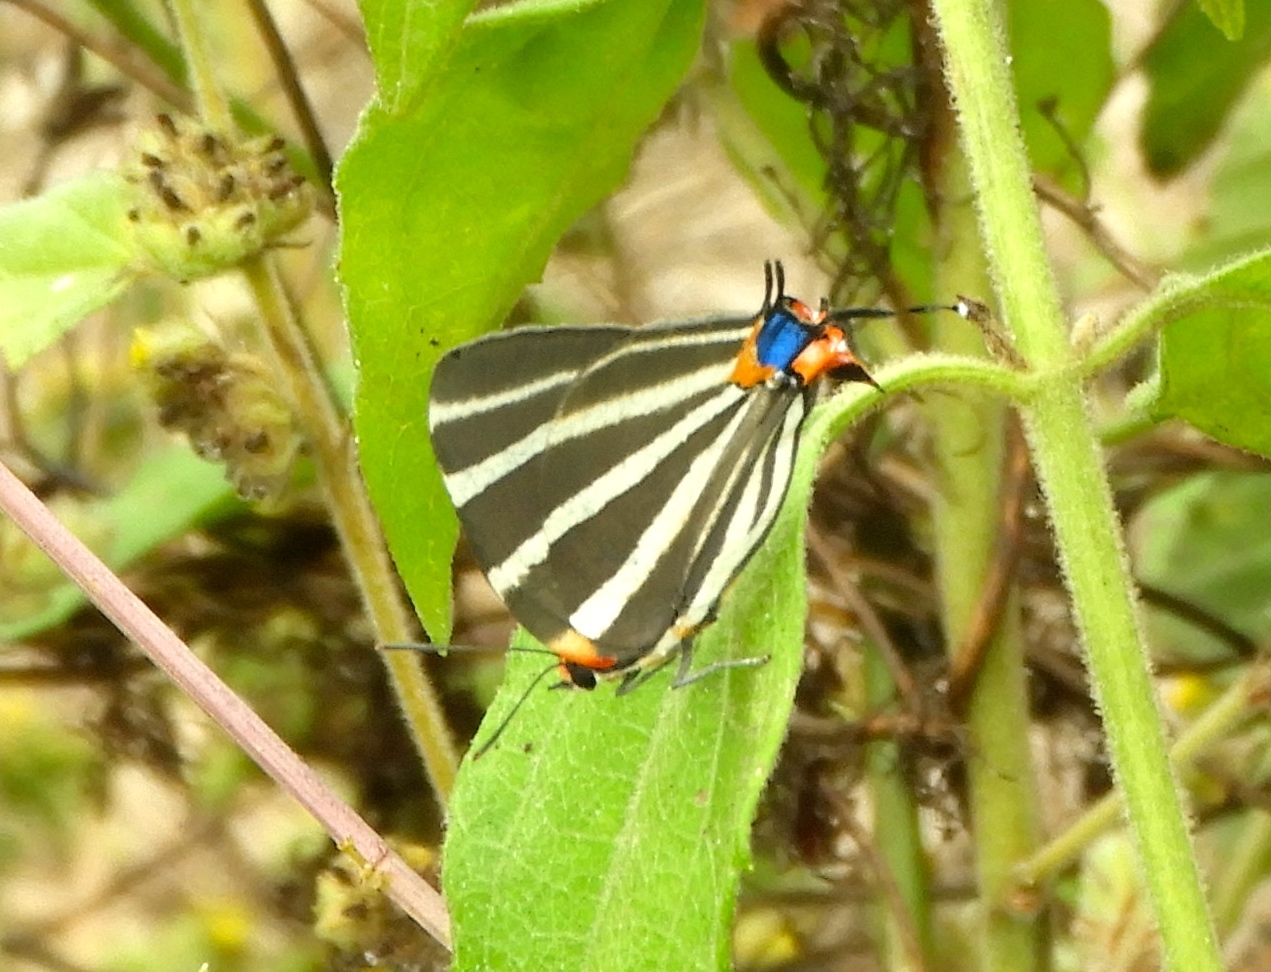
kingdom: Animalia
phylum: Arthropoda
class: Insecta
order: Lepidoptera
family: Lycaenidae
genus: Thecla
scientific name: Thecla bathildis
